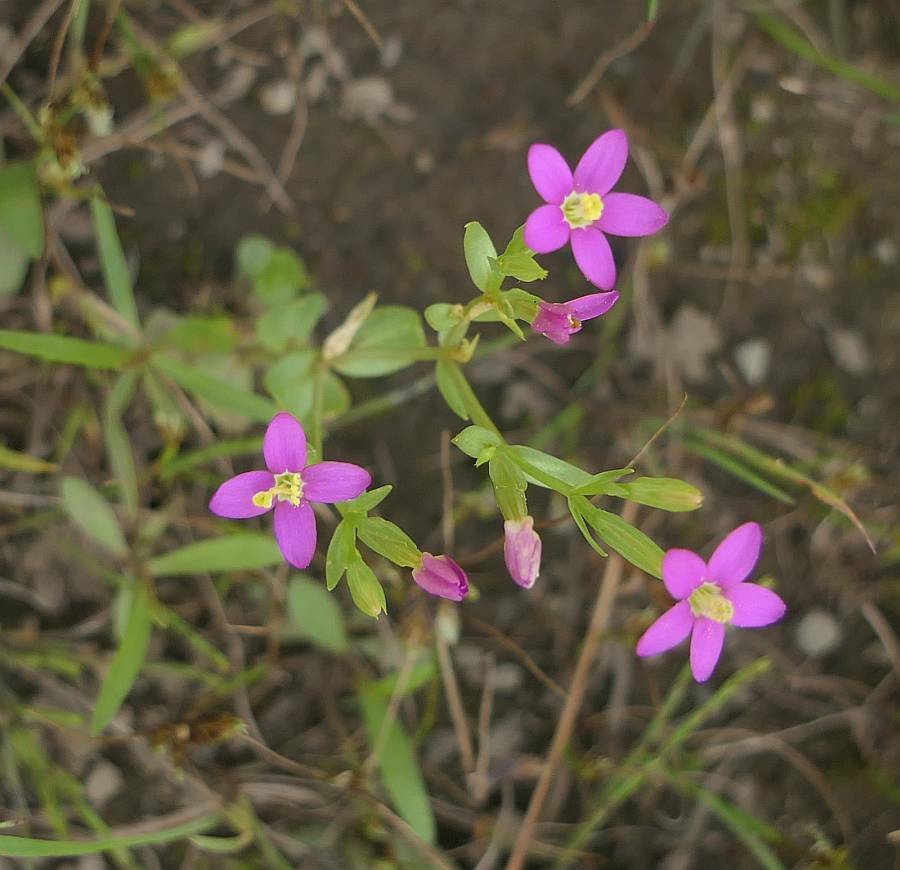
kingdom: Plantae
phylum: Tracheophyta
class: Magnoliopsida
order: Gentianales
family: Gentianaceae
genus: Centaurium
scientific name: Centaurium pulchellum
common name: Lesser centaury
